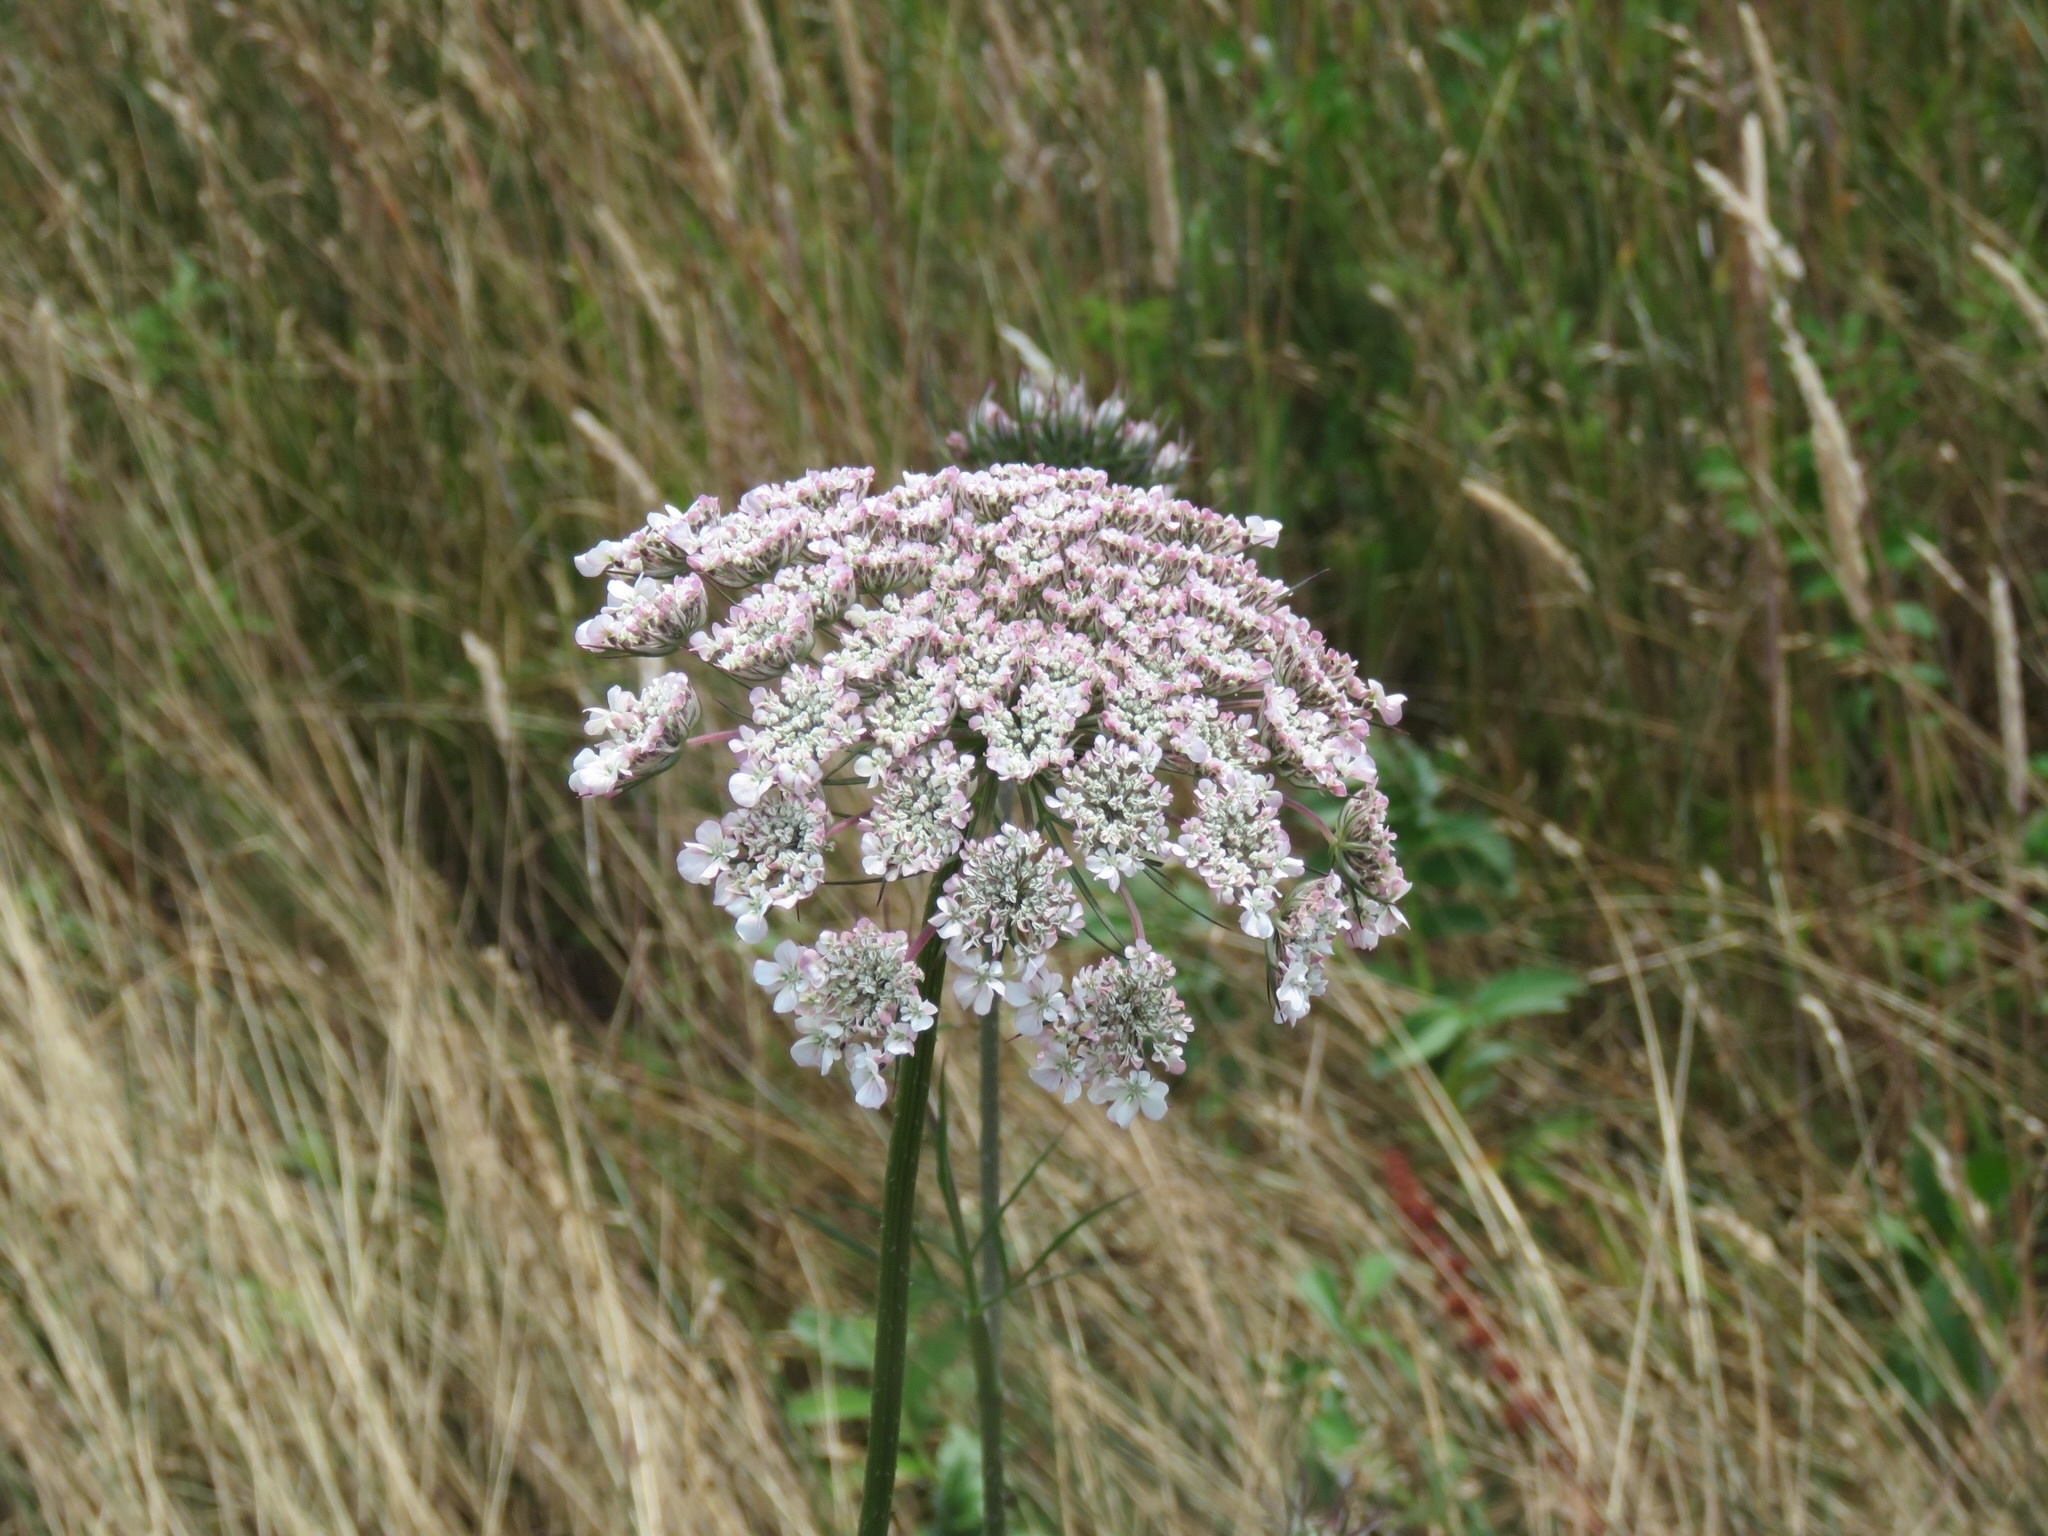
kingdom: Plantae
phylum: Tracheophyta
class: Magnoliopsida
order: Apiales
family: Apiaceae
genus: Daucus
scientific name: Daucus carota
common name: Wild carrot
